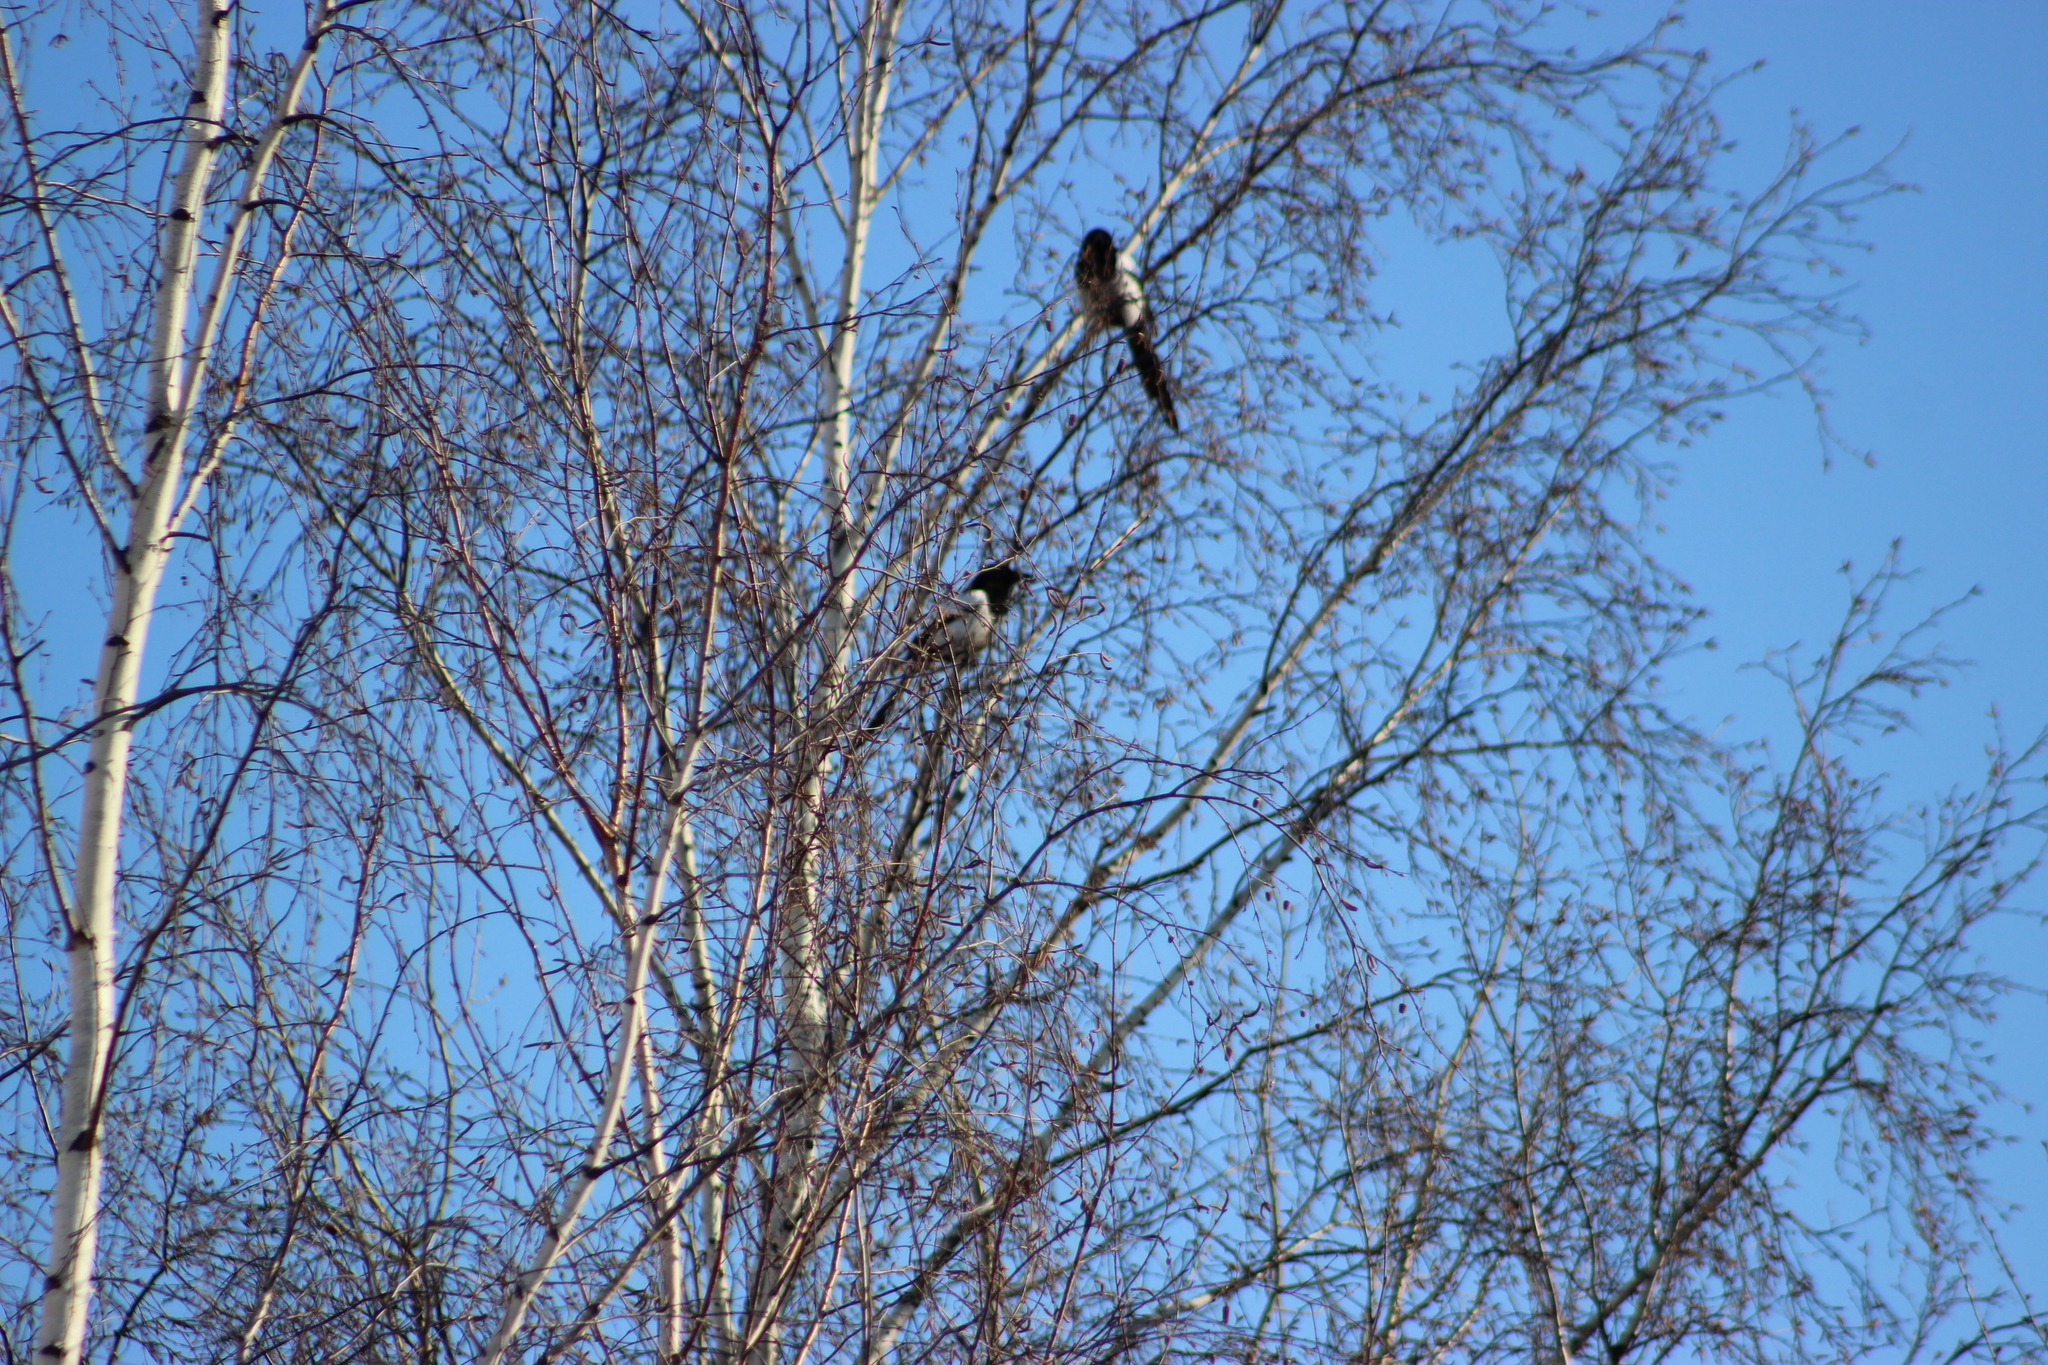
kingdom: Animalia
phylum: Chordata
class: Aves
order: Passeriformes
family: Corvidae
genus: Pica
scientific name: Pica pica
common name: Eurasian magpie
